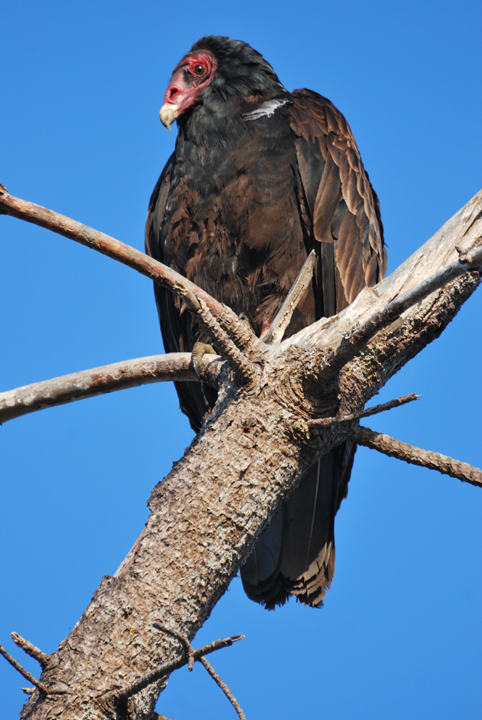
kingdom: Animalia
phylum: Chordata
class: Aves
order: Accipitriformes
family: Cathartidae
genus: Cathartes
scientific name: Cathartes aura
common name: Turkey vulture
